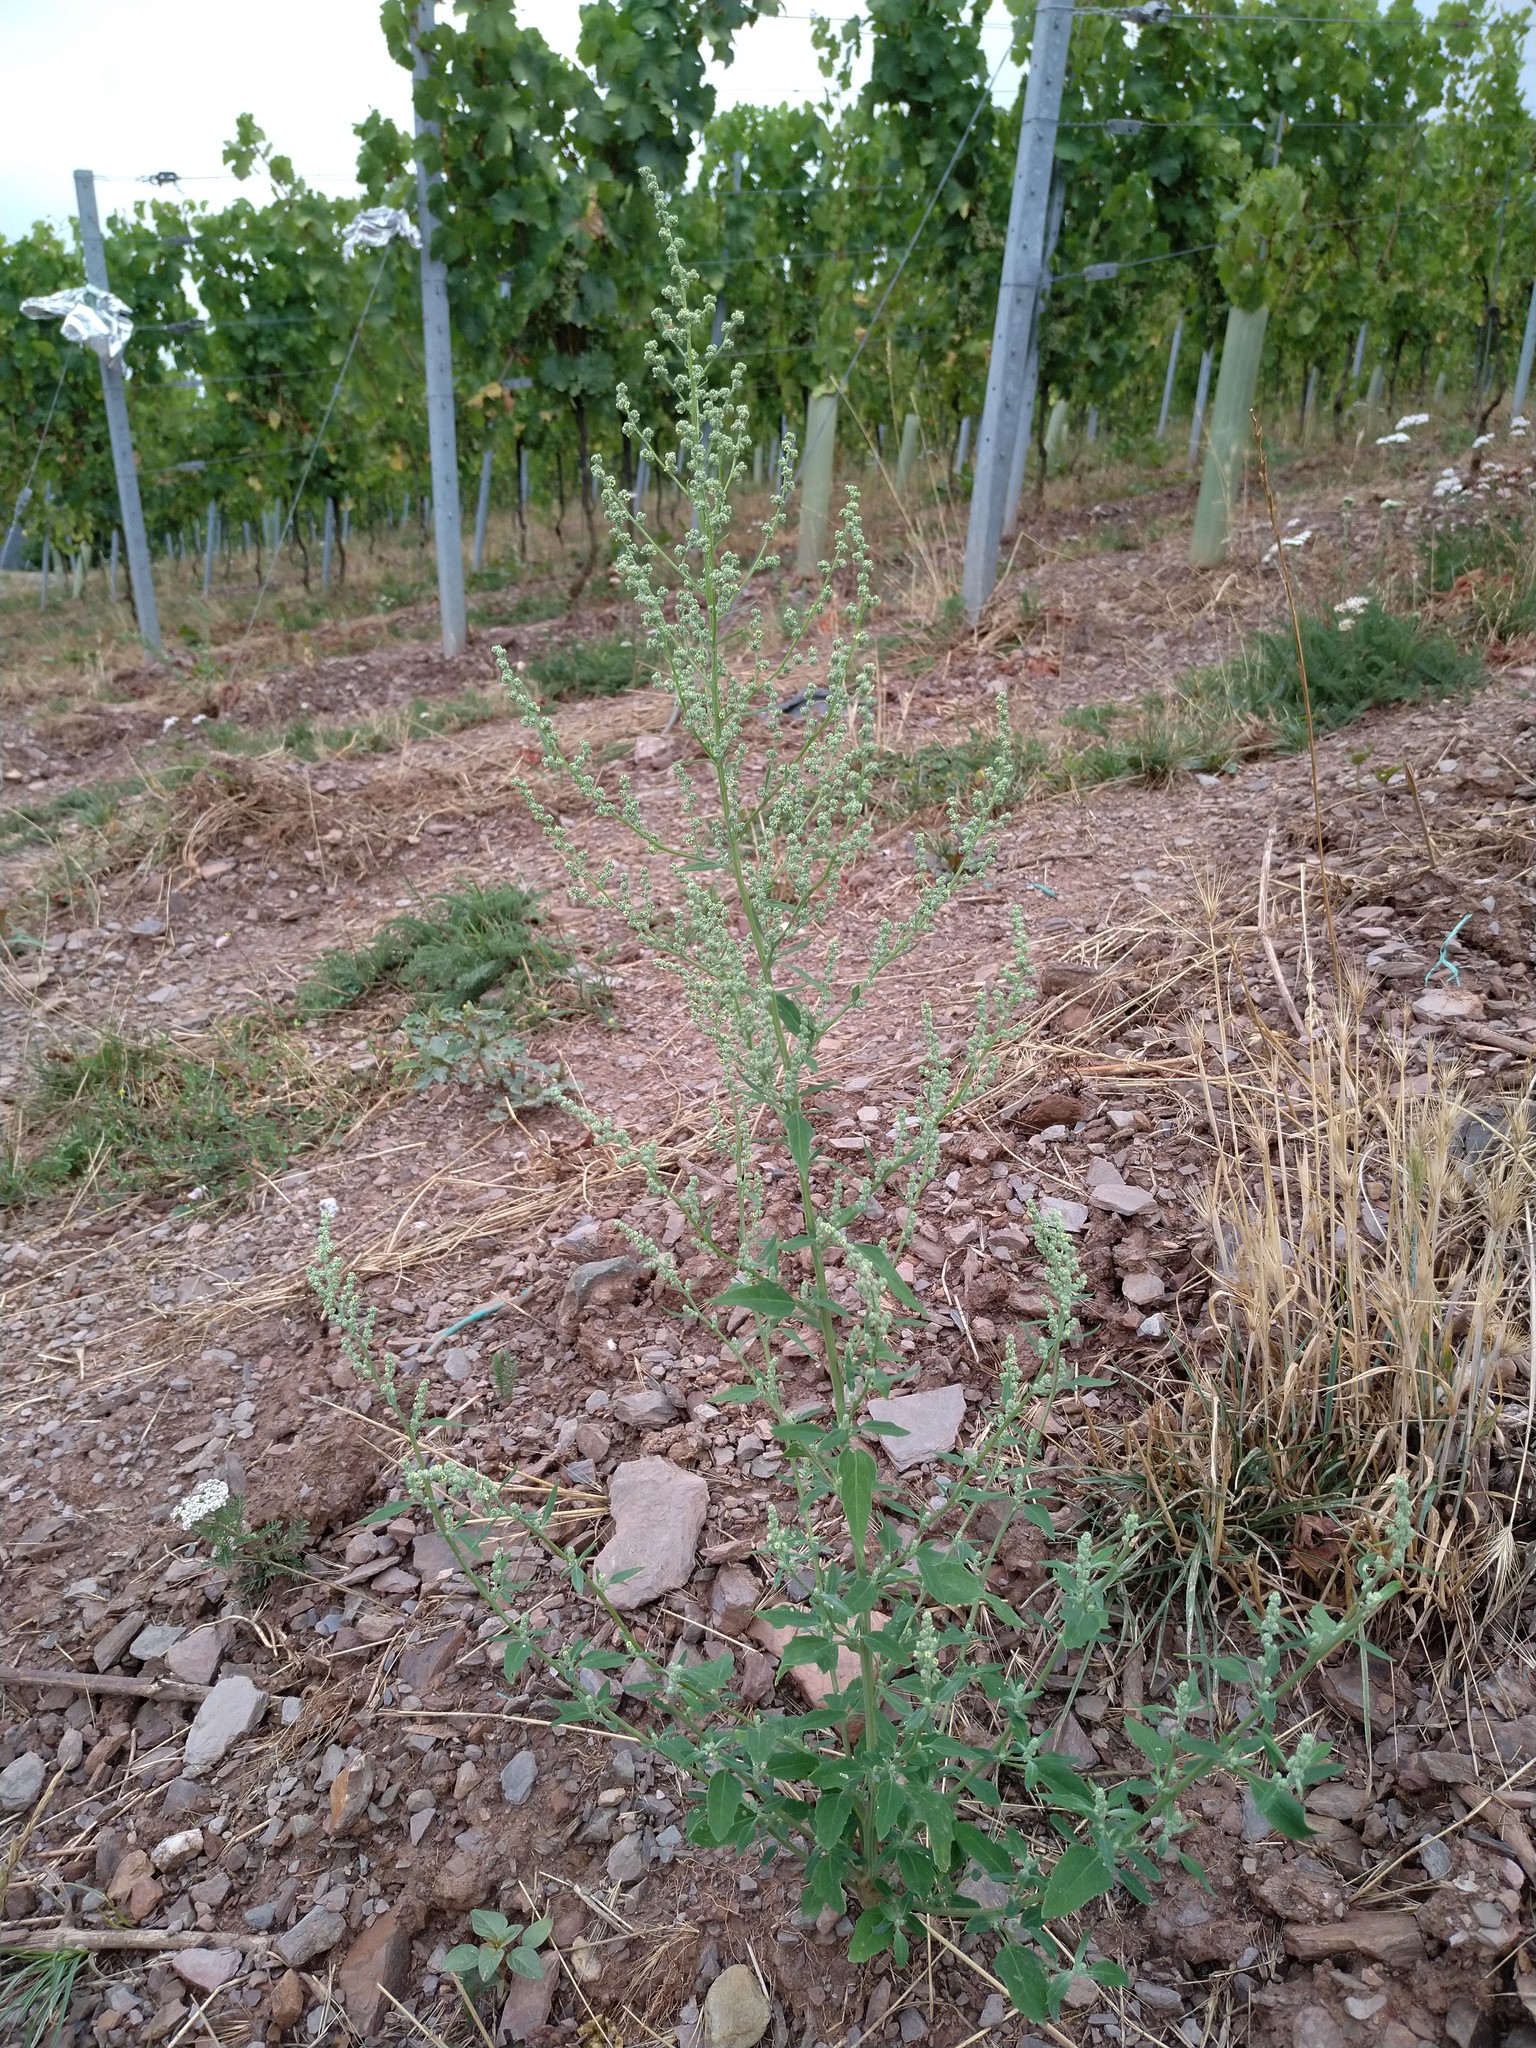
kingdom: Plantae
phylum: Tracheophyta
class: Magnoliopsida
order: Caryophyllales
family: Amaranthaceae
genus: Chenopodium
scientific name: Chenopodium album
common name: Fat-hen
